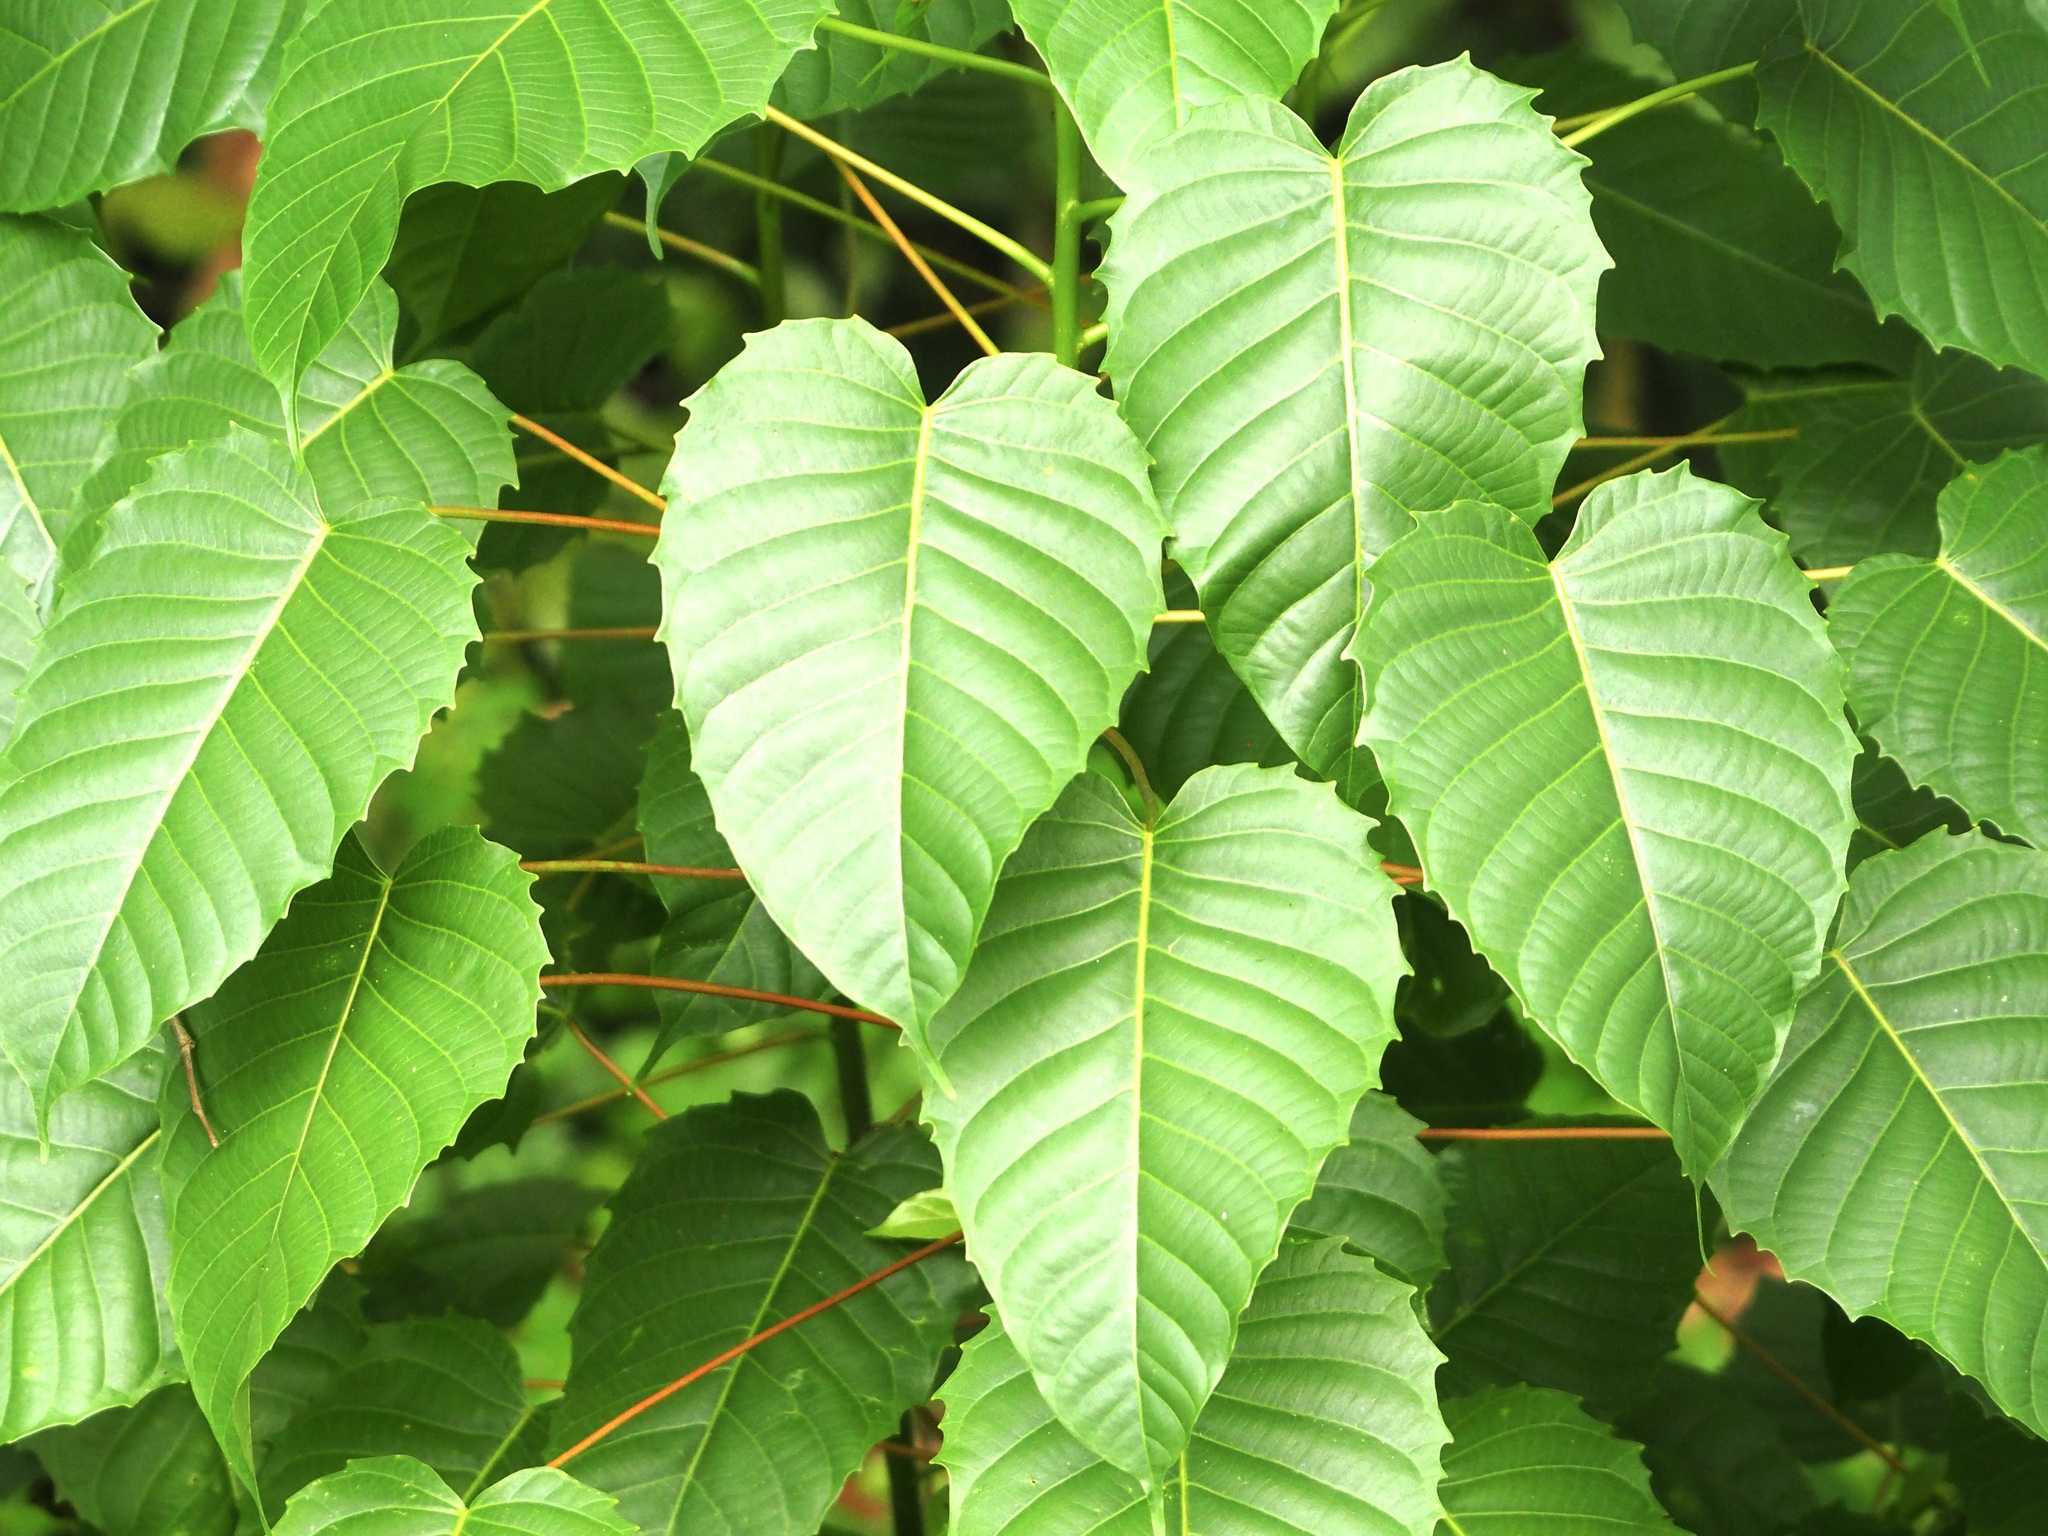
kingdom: Plantae
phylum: Tracheophyta
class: Magnoliopsida
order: Malpighiales
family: Euphorbiaceae
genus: Hura
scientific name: Hura crepitans
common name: Sandboxtree
